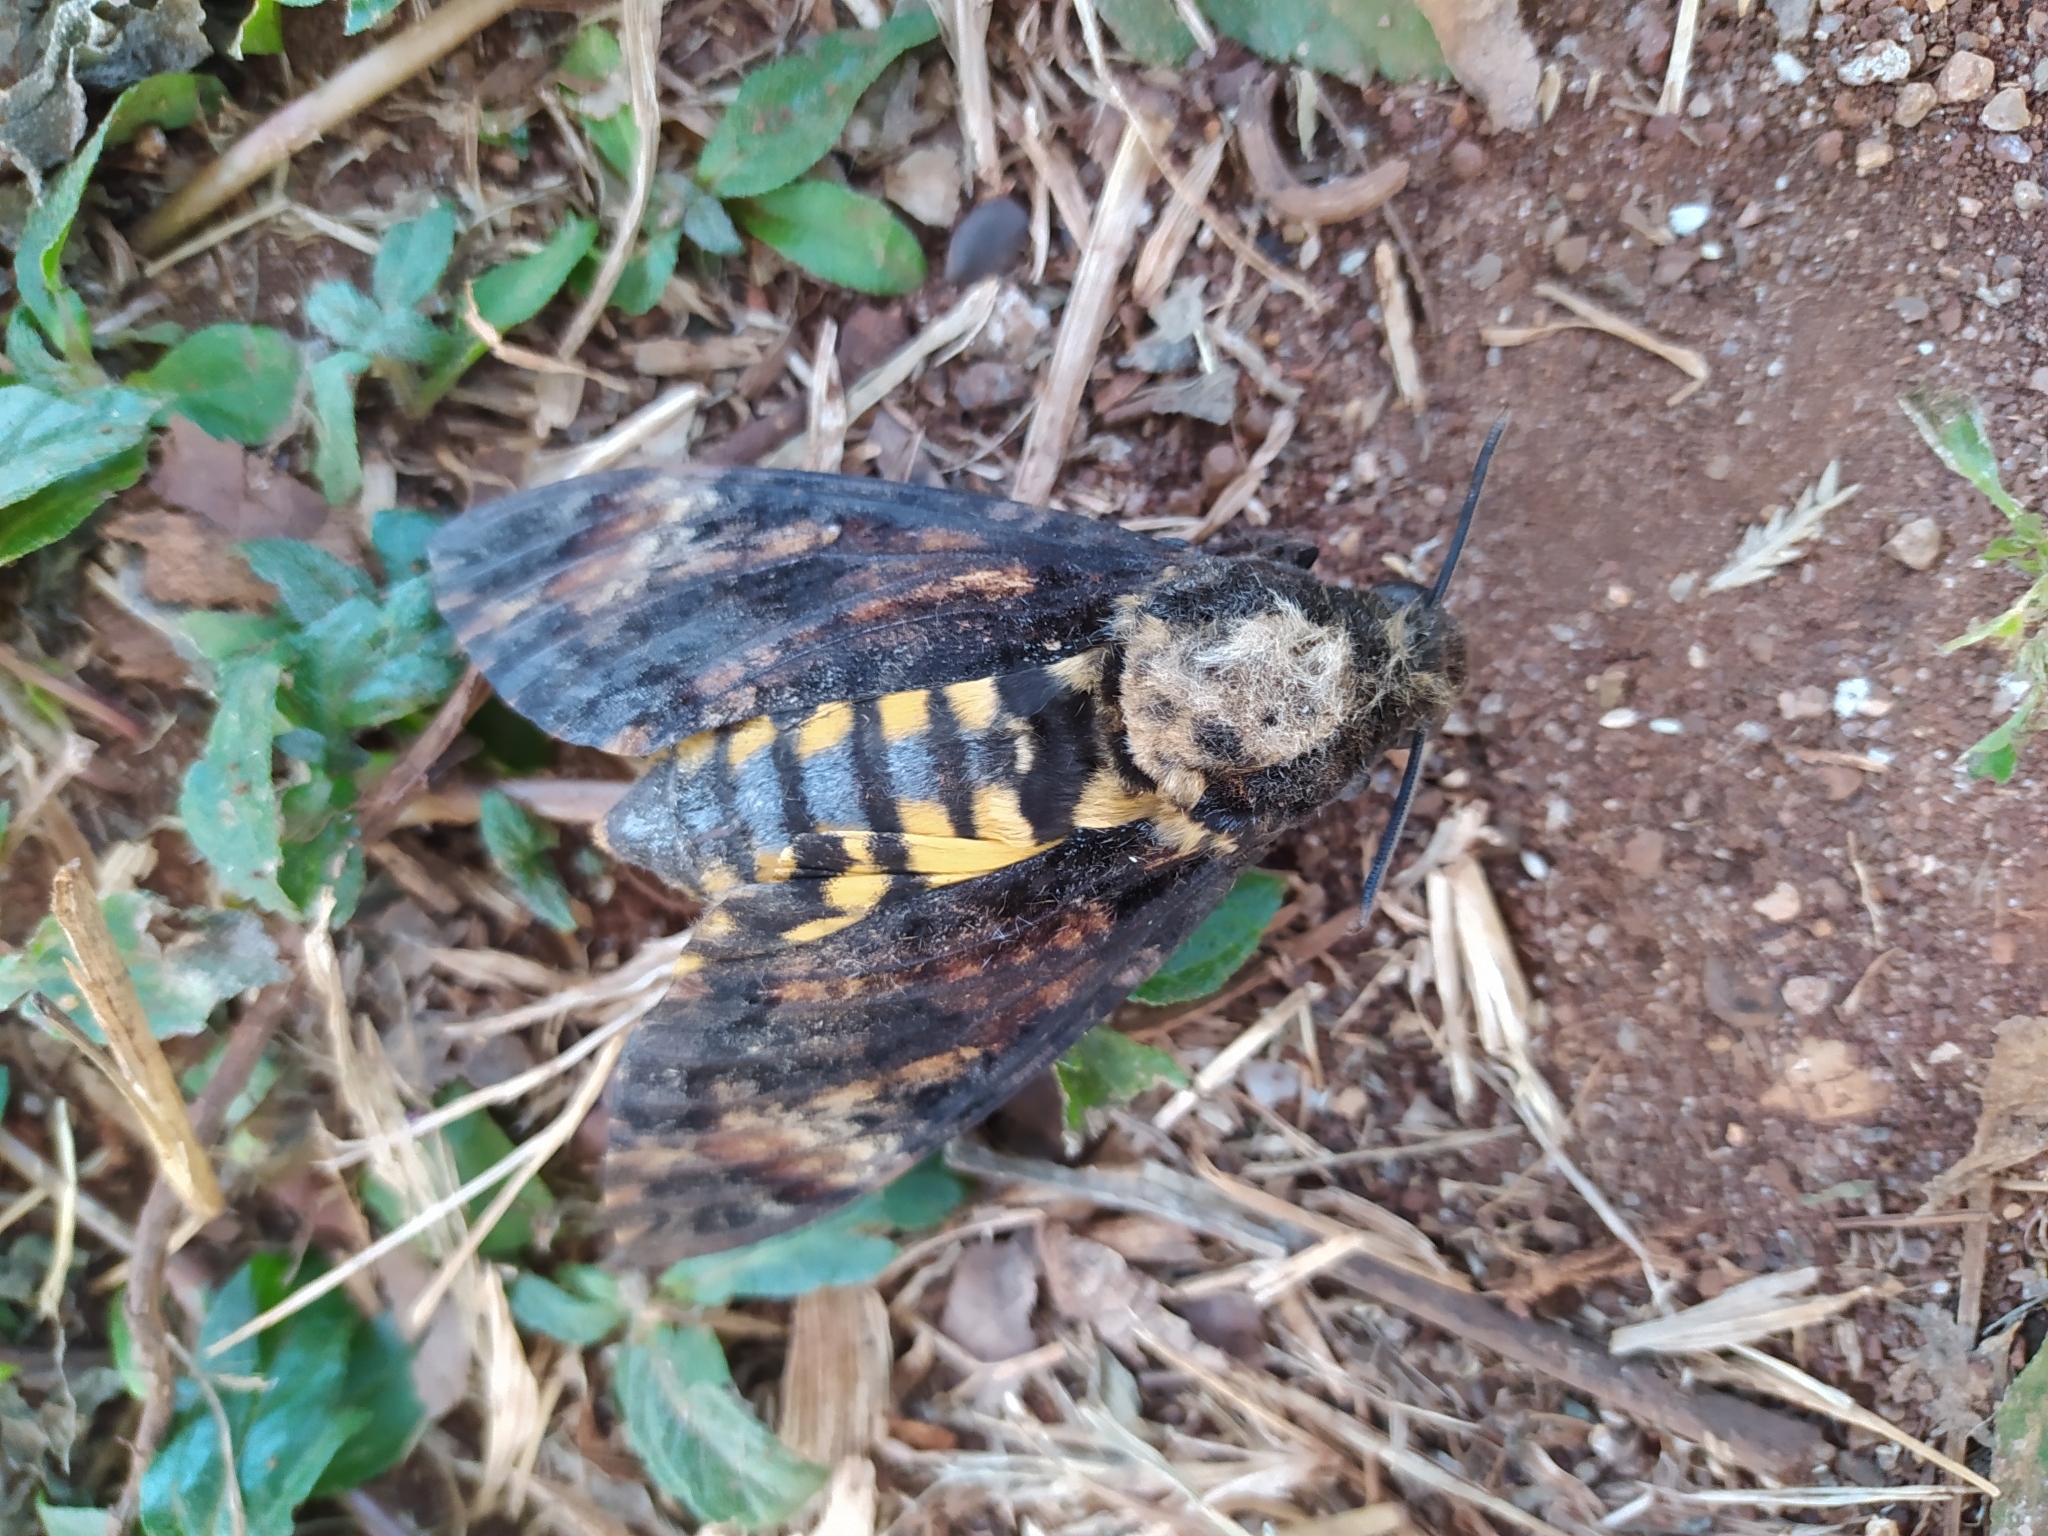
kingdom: Animalia
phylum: Arthropoda
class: Insecta
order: Lepidoptera
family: Sphingidae
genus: Acherontia
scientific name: Acherontia atropos
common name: Death's-head hawk moth
